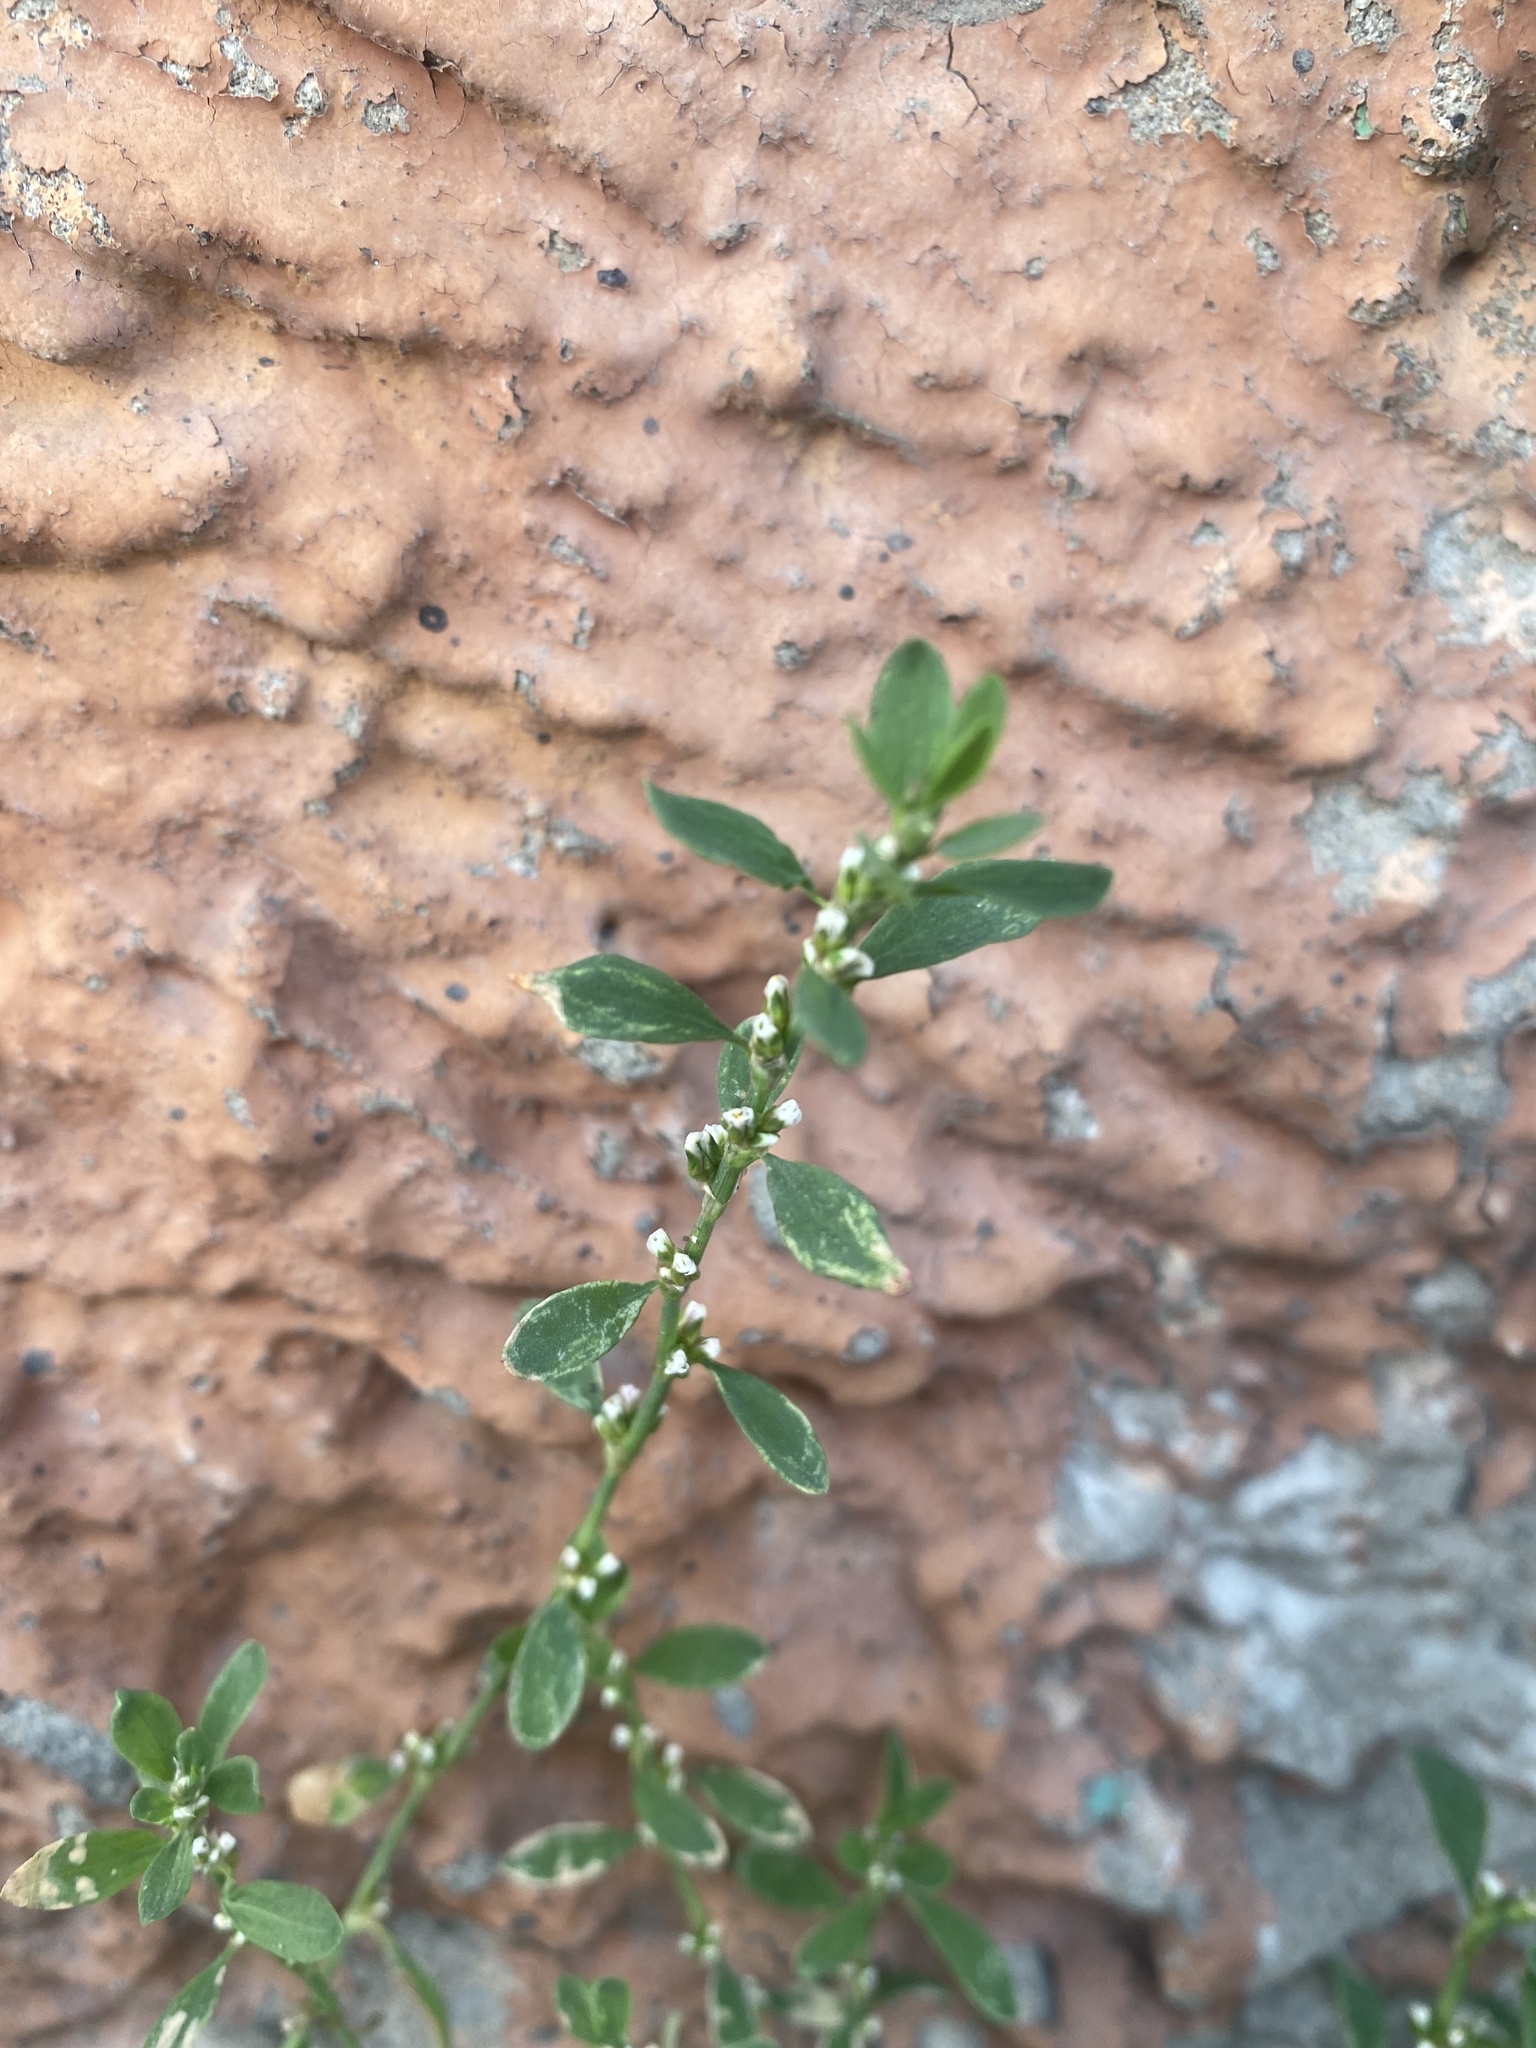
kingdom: Plantae
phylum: Tracheophyta
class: Magnoliopsida
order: Caryophyllales
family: Polygonaceae
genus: Polygonum
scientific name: Polygonum aviculare
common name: Prostrate knotweed
